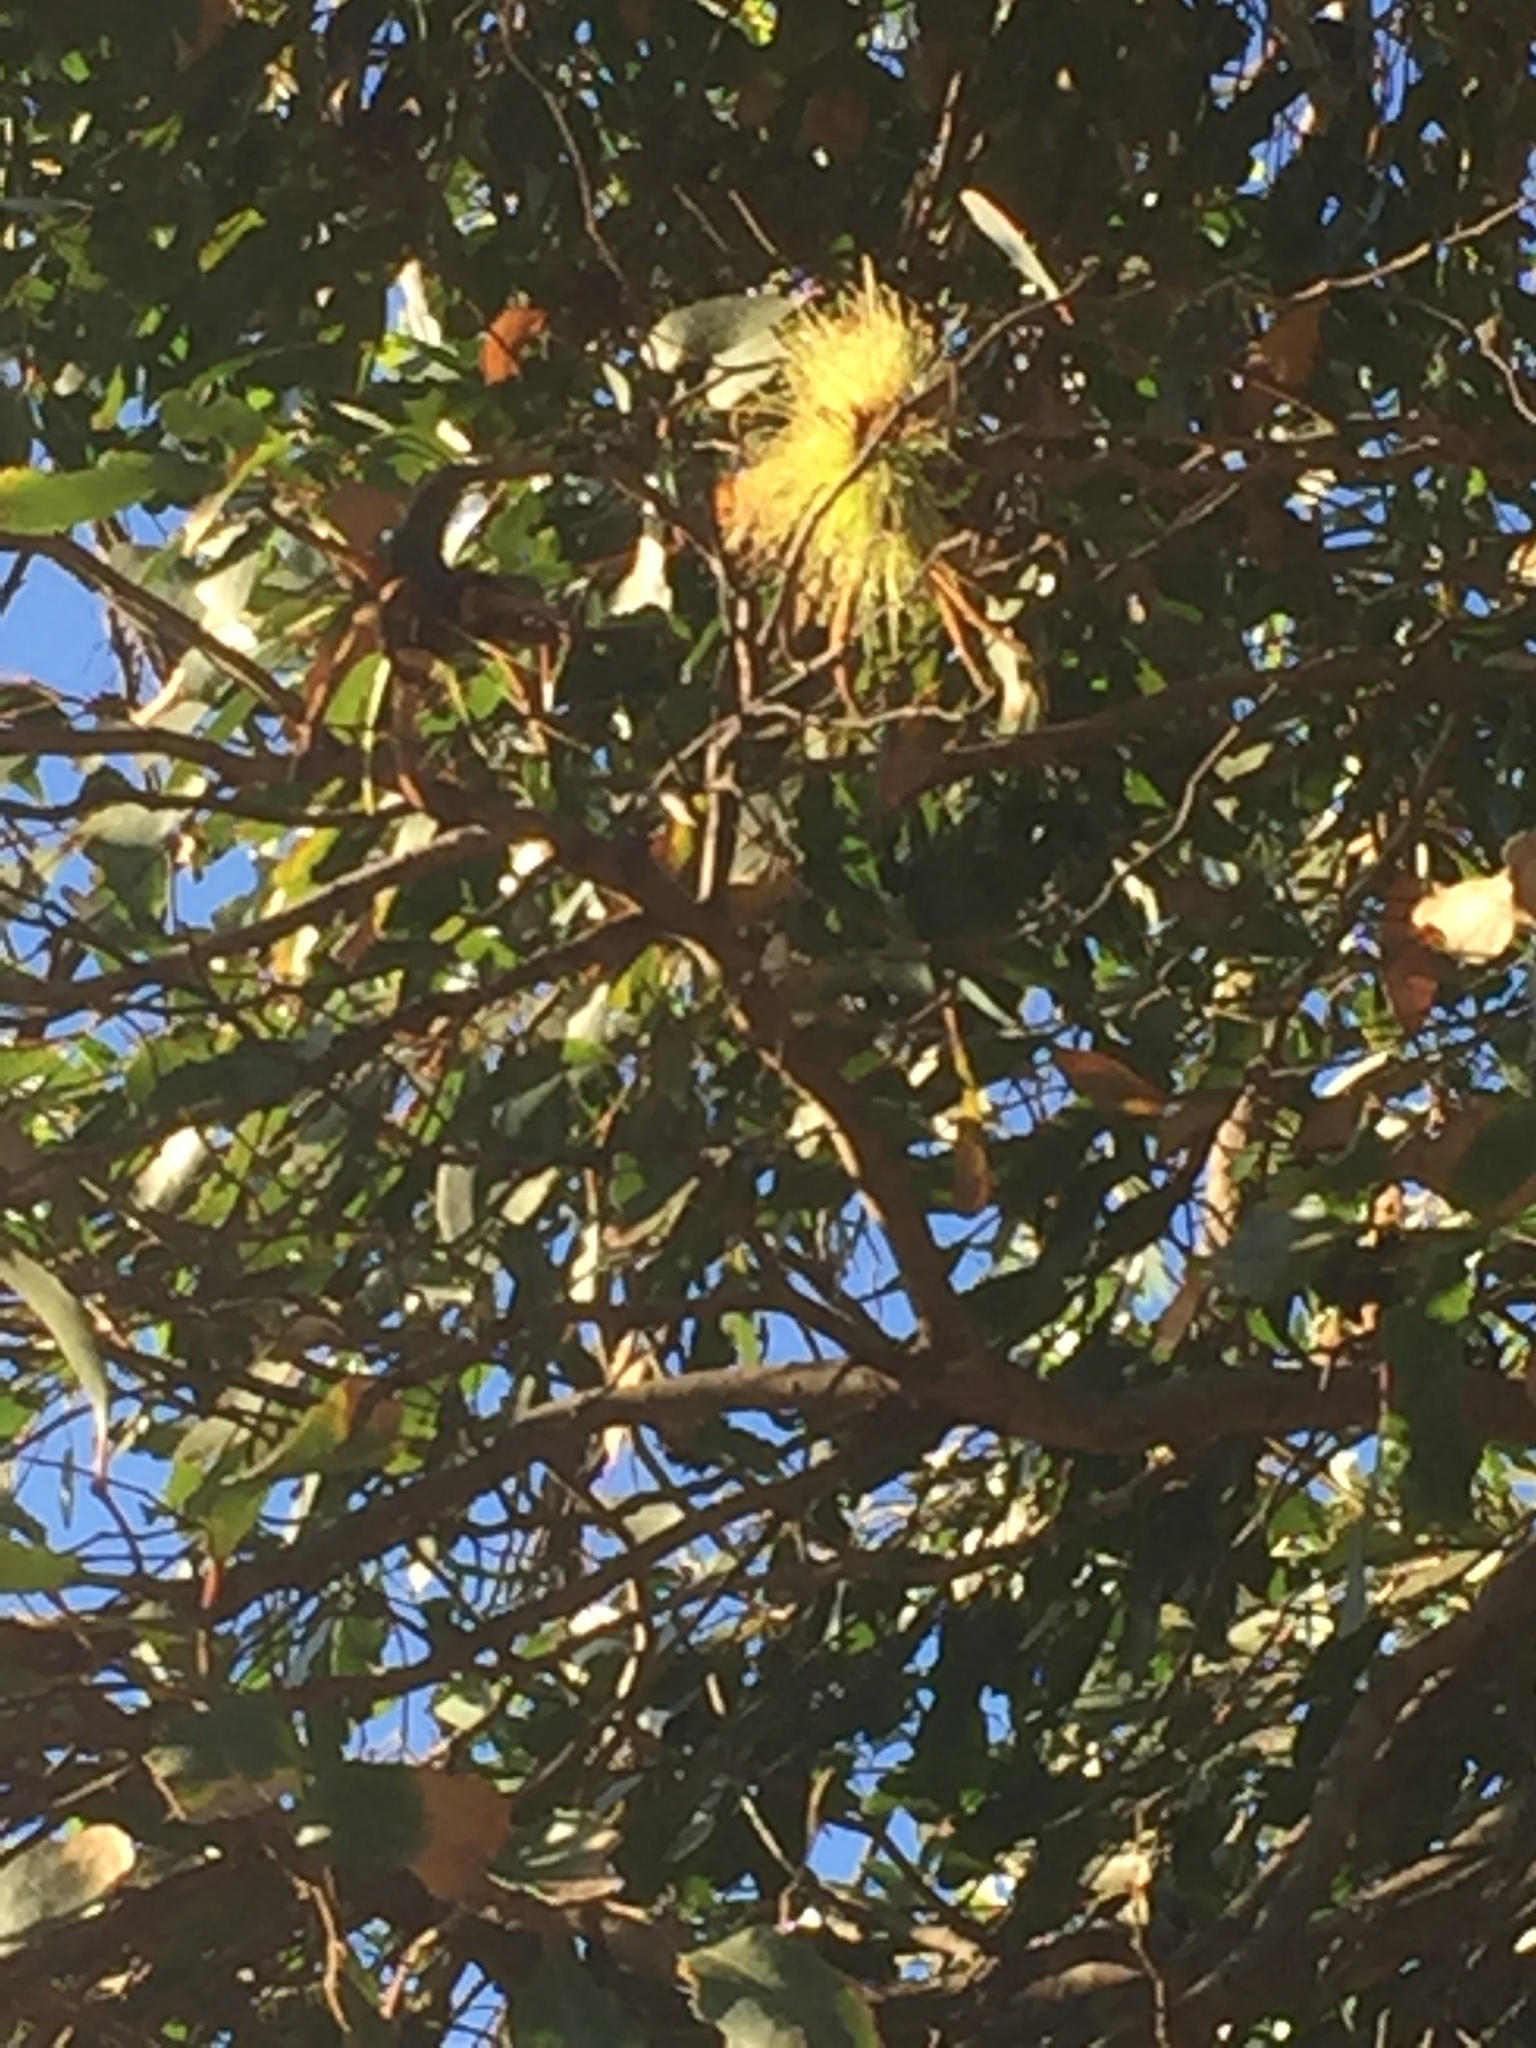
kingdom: Plantae
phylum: Tracheophyta
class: Magnoliopsida
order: Myrtales
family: Myrtaceae
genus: Eucalyptus
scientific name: Eucalyptus conferruminata
